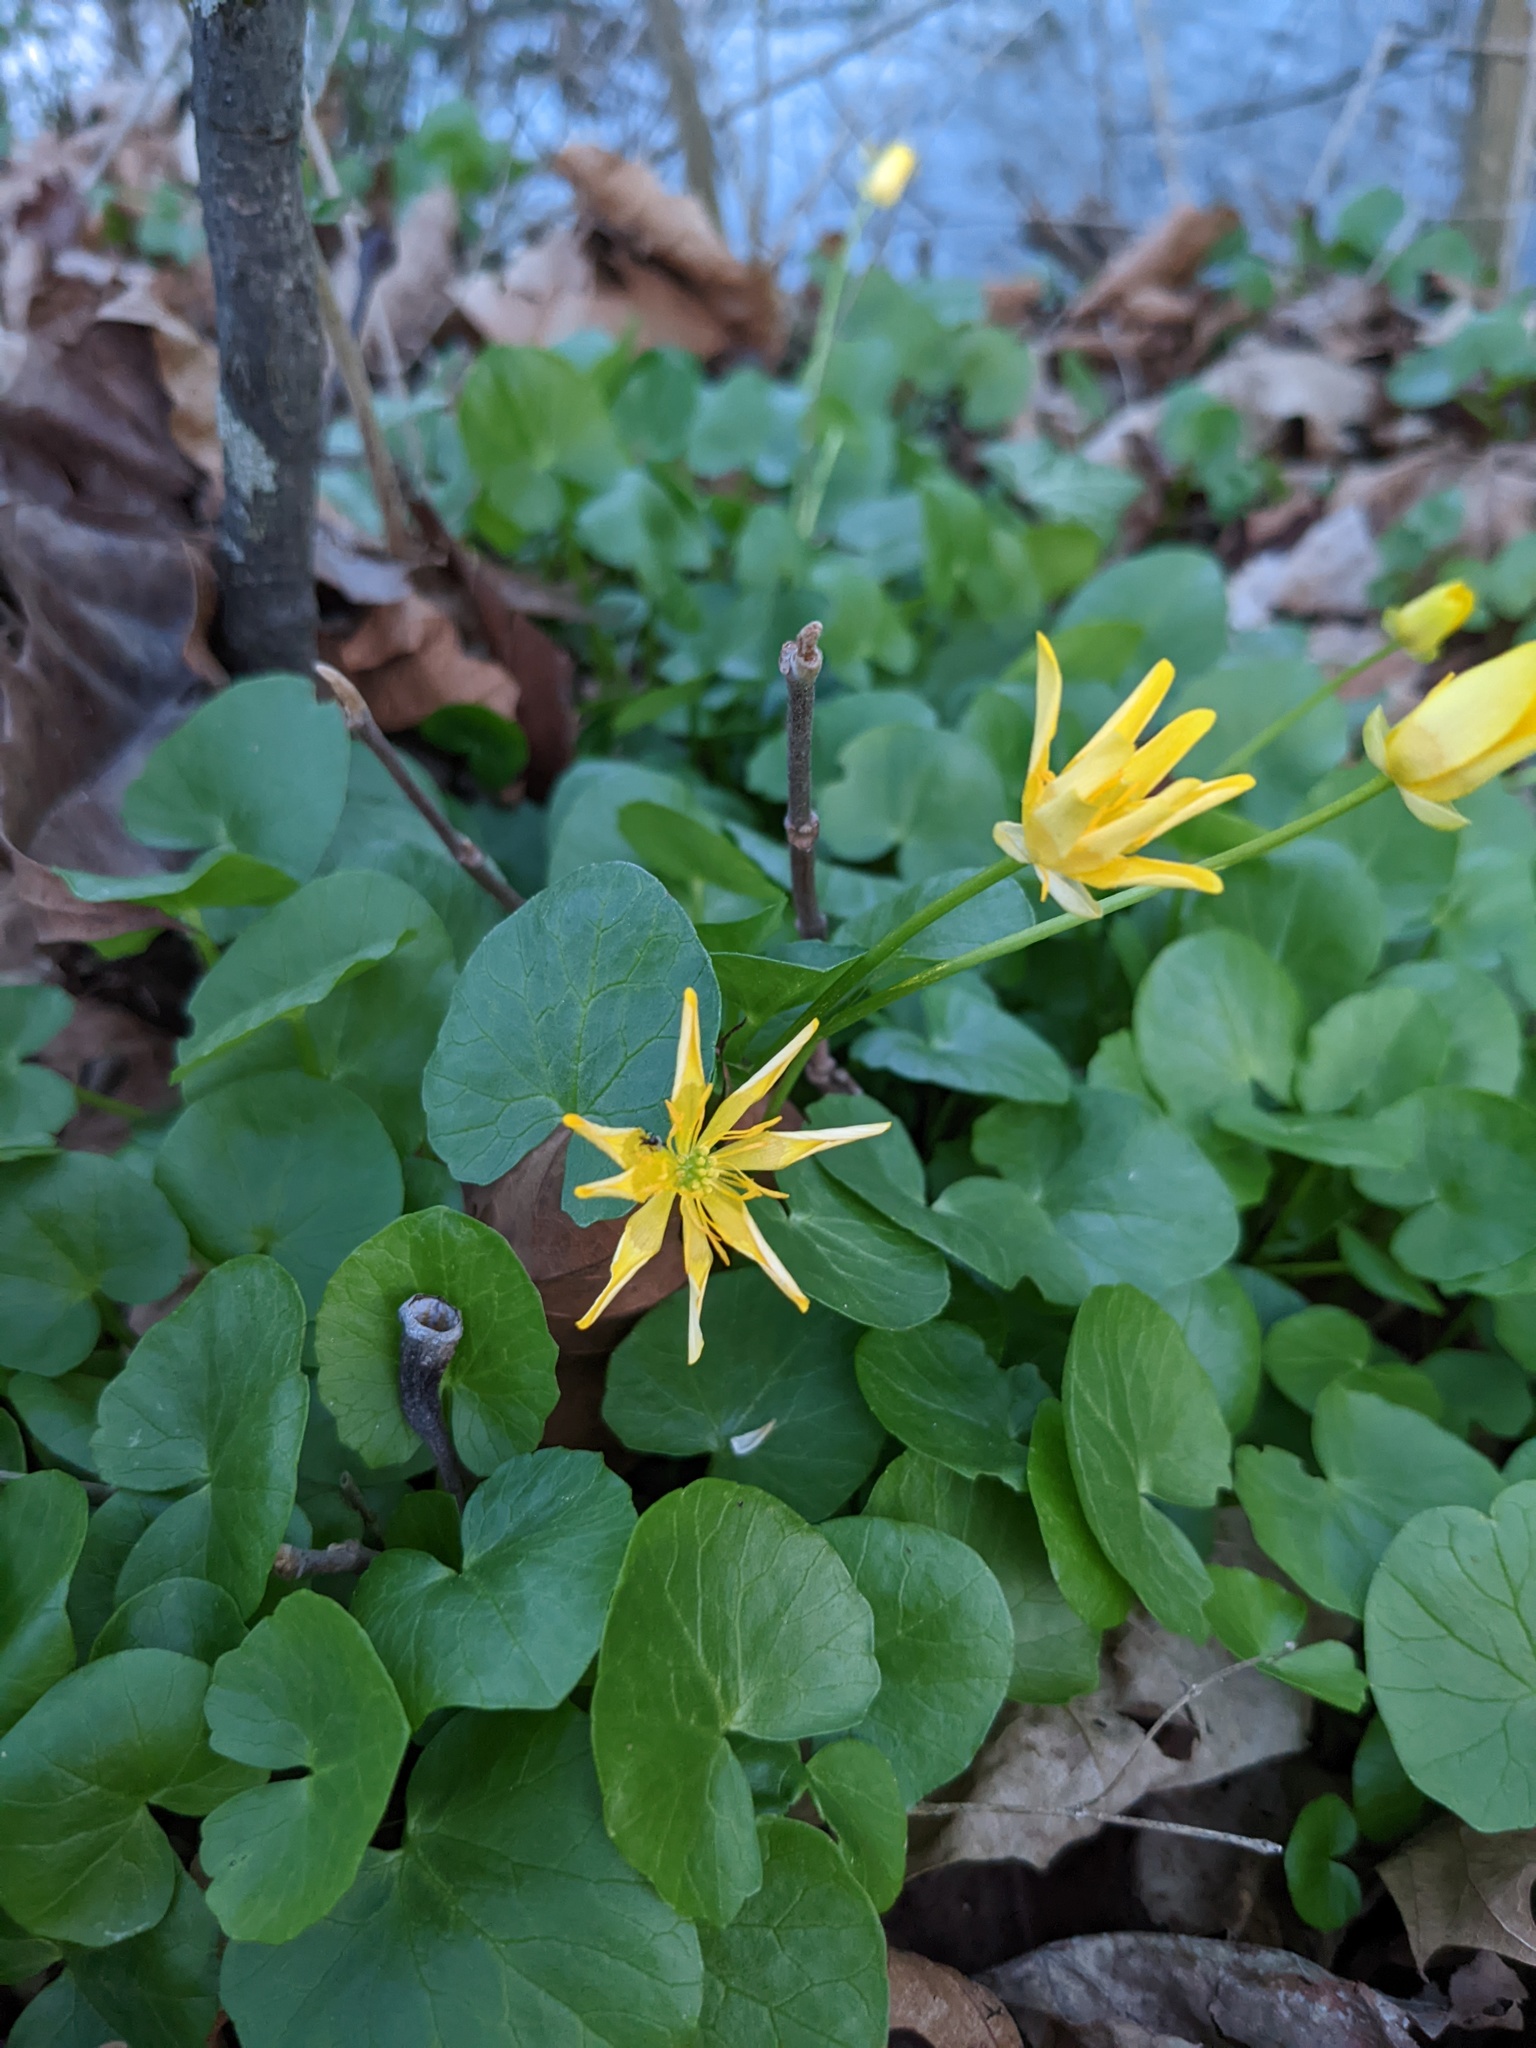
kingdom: Plantae
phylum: Tracheophyta
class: Magnoliopsida
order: Ranunculales
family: Ranunculaceae
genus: Ficaria
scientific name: Ficaria verna
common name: Lesser celandine
